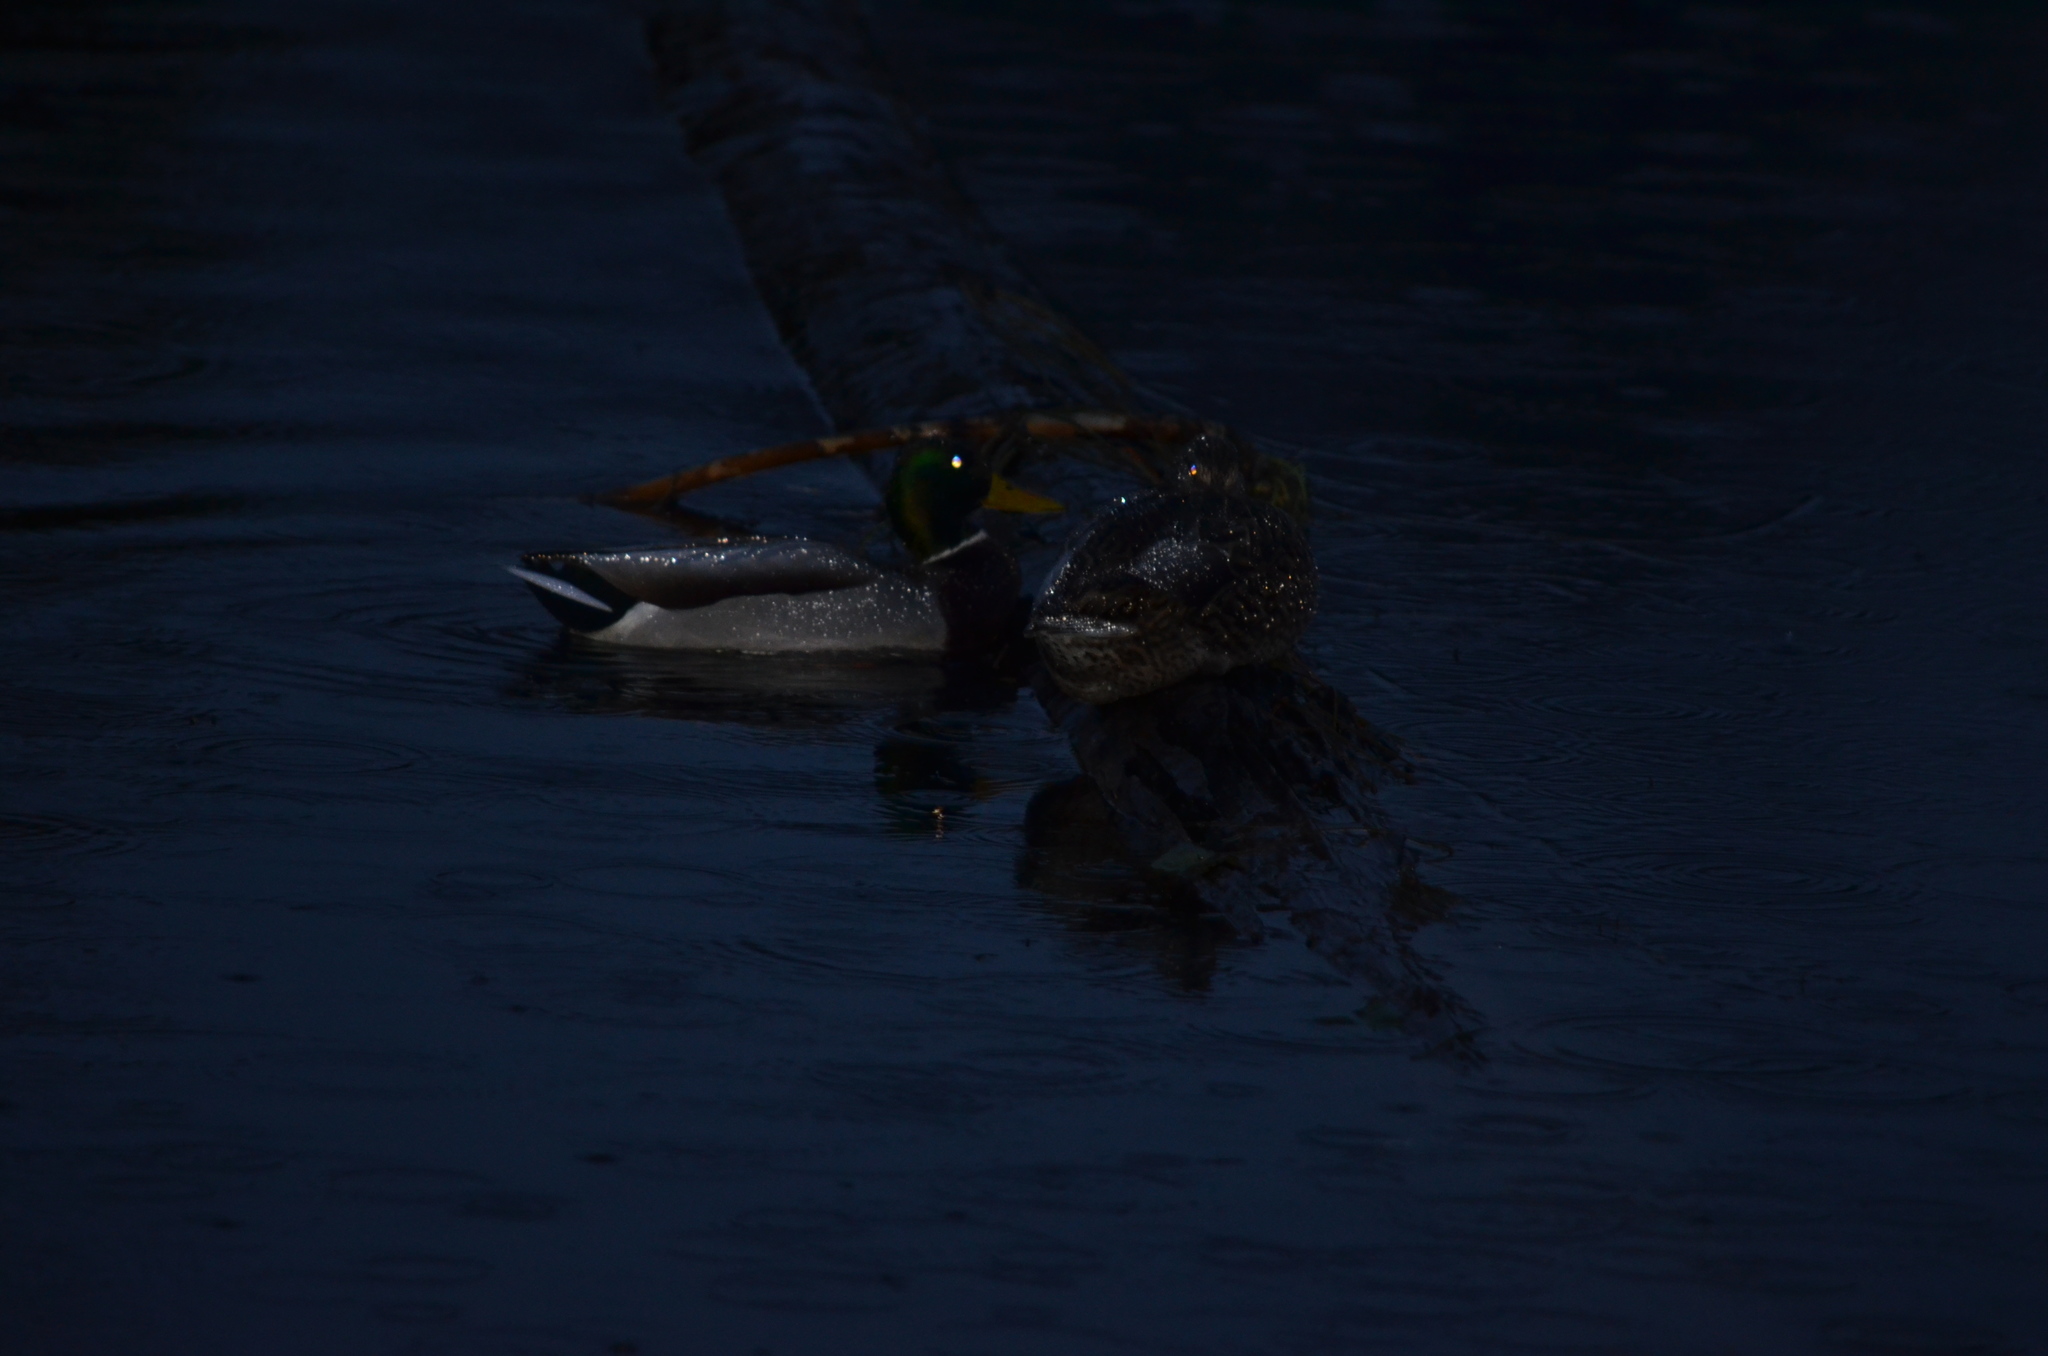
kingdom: Animalia
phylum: Chordata
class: Aves
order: Anseriformes
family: Anatidae
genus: Anas
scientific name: Anas platyrhynchos
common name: Mallard
